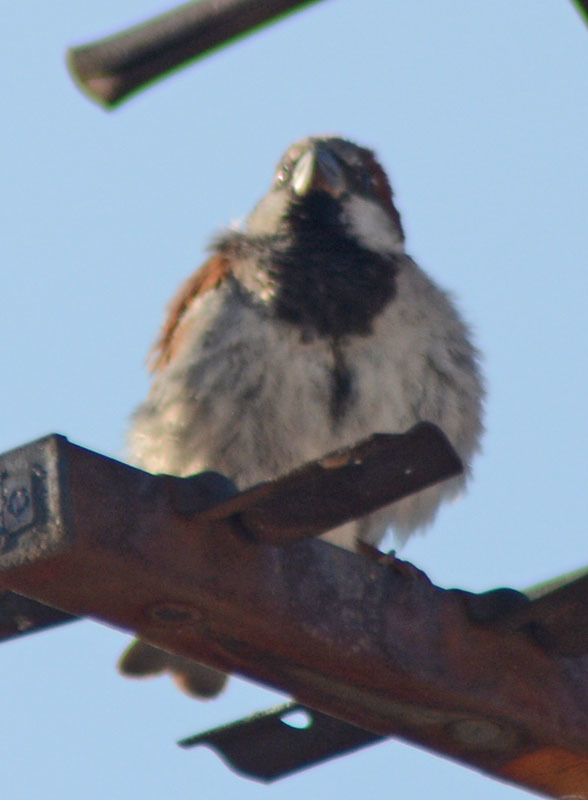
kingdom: Animalia
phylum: Chordata
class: Aves
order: Passeriformes
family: Passeridae
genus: Passer
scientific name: Passer domesticus
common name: House sparrow
